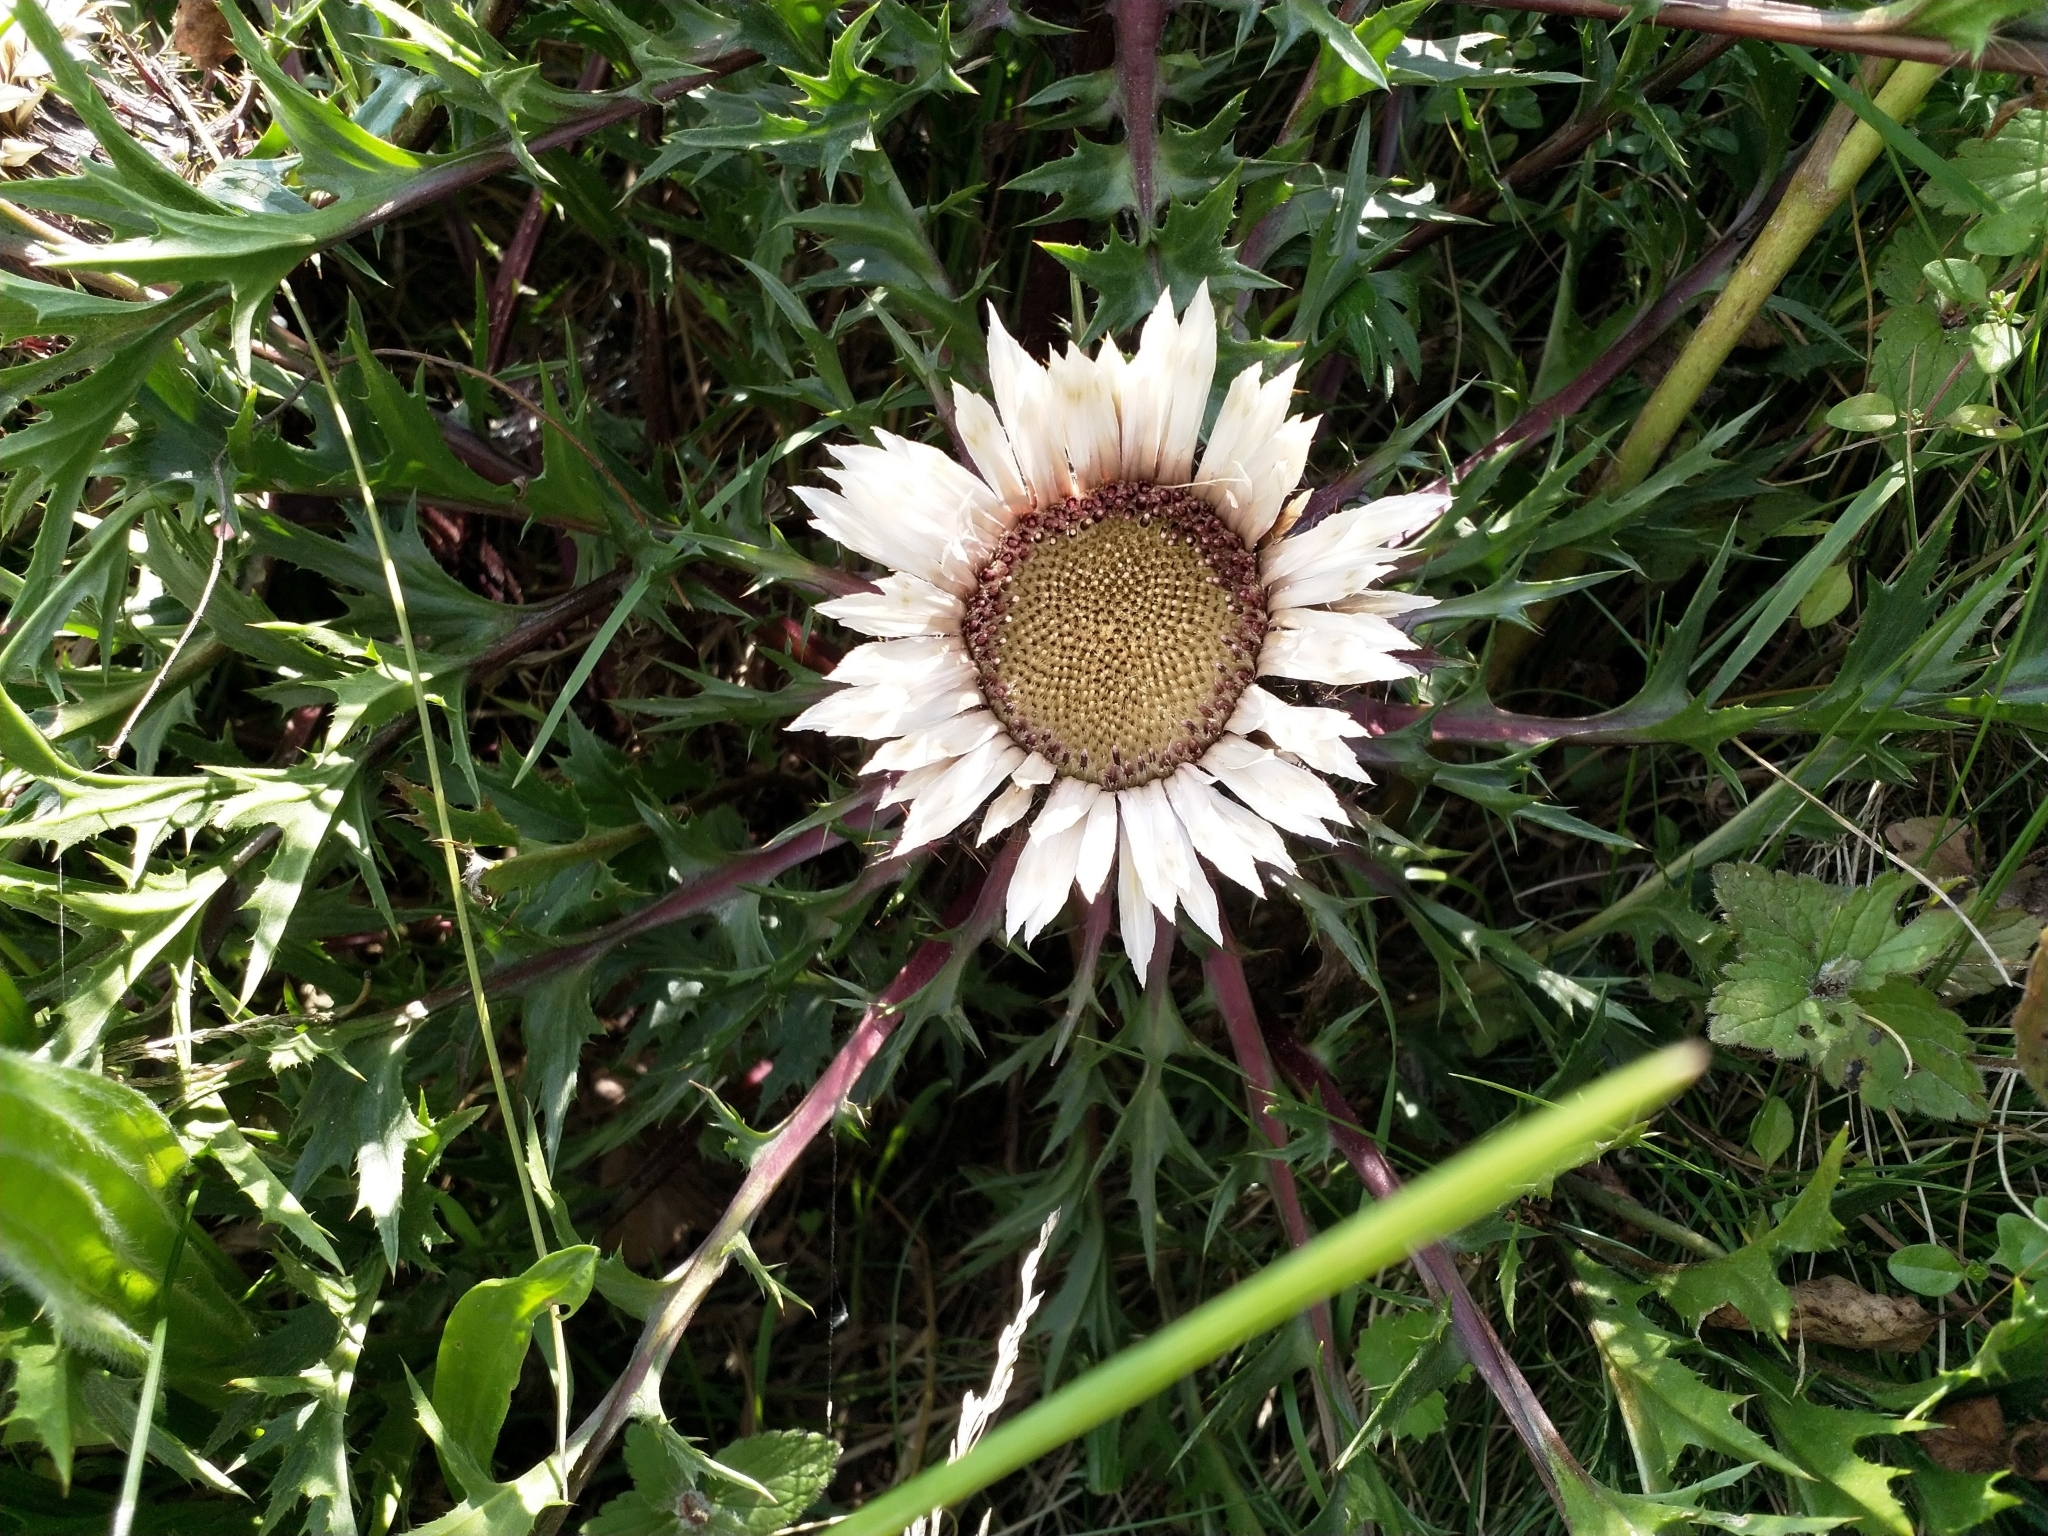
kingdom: Plantae
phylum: Tracheophyta
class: Magnoliopsida
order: Asterales
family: Asteraceae
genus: Carlina
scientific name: Carlina acaulis
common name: Stemless carline thistle
